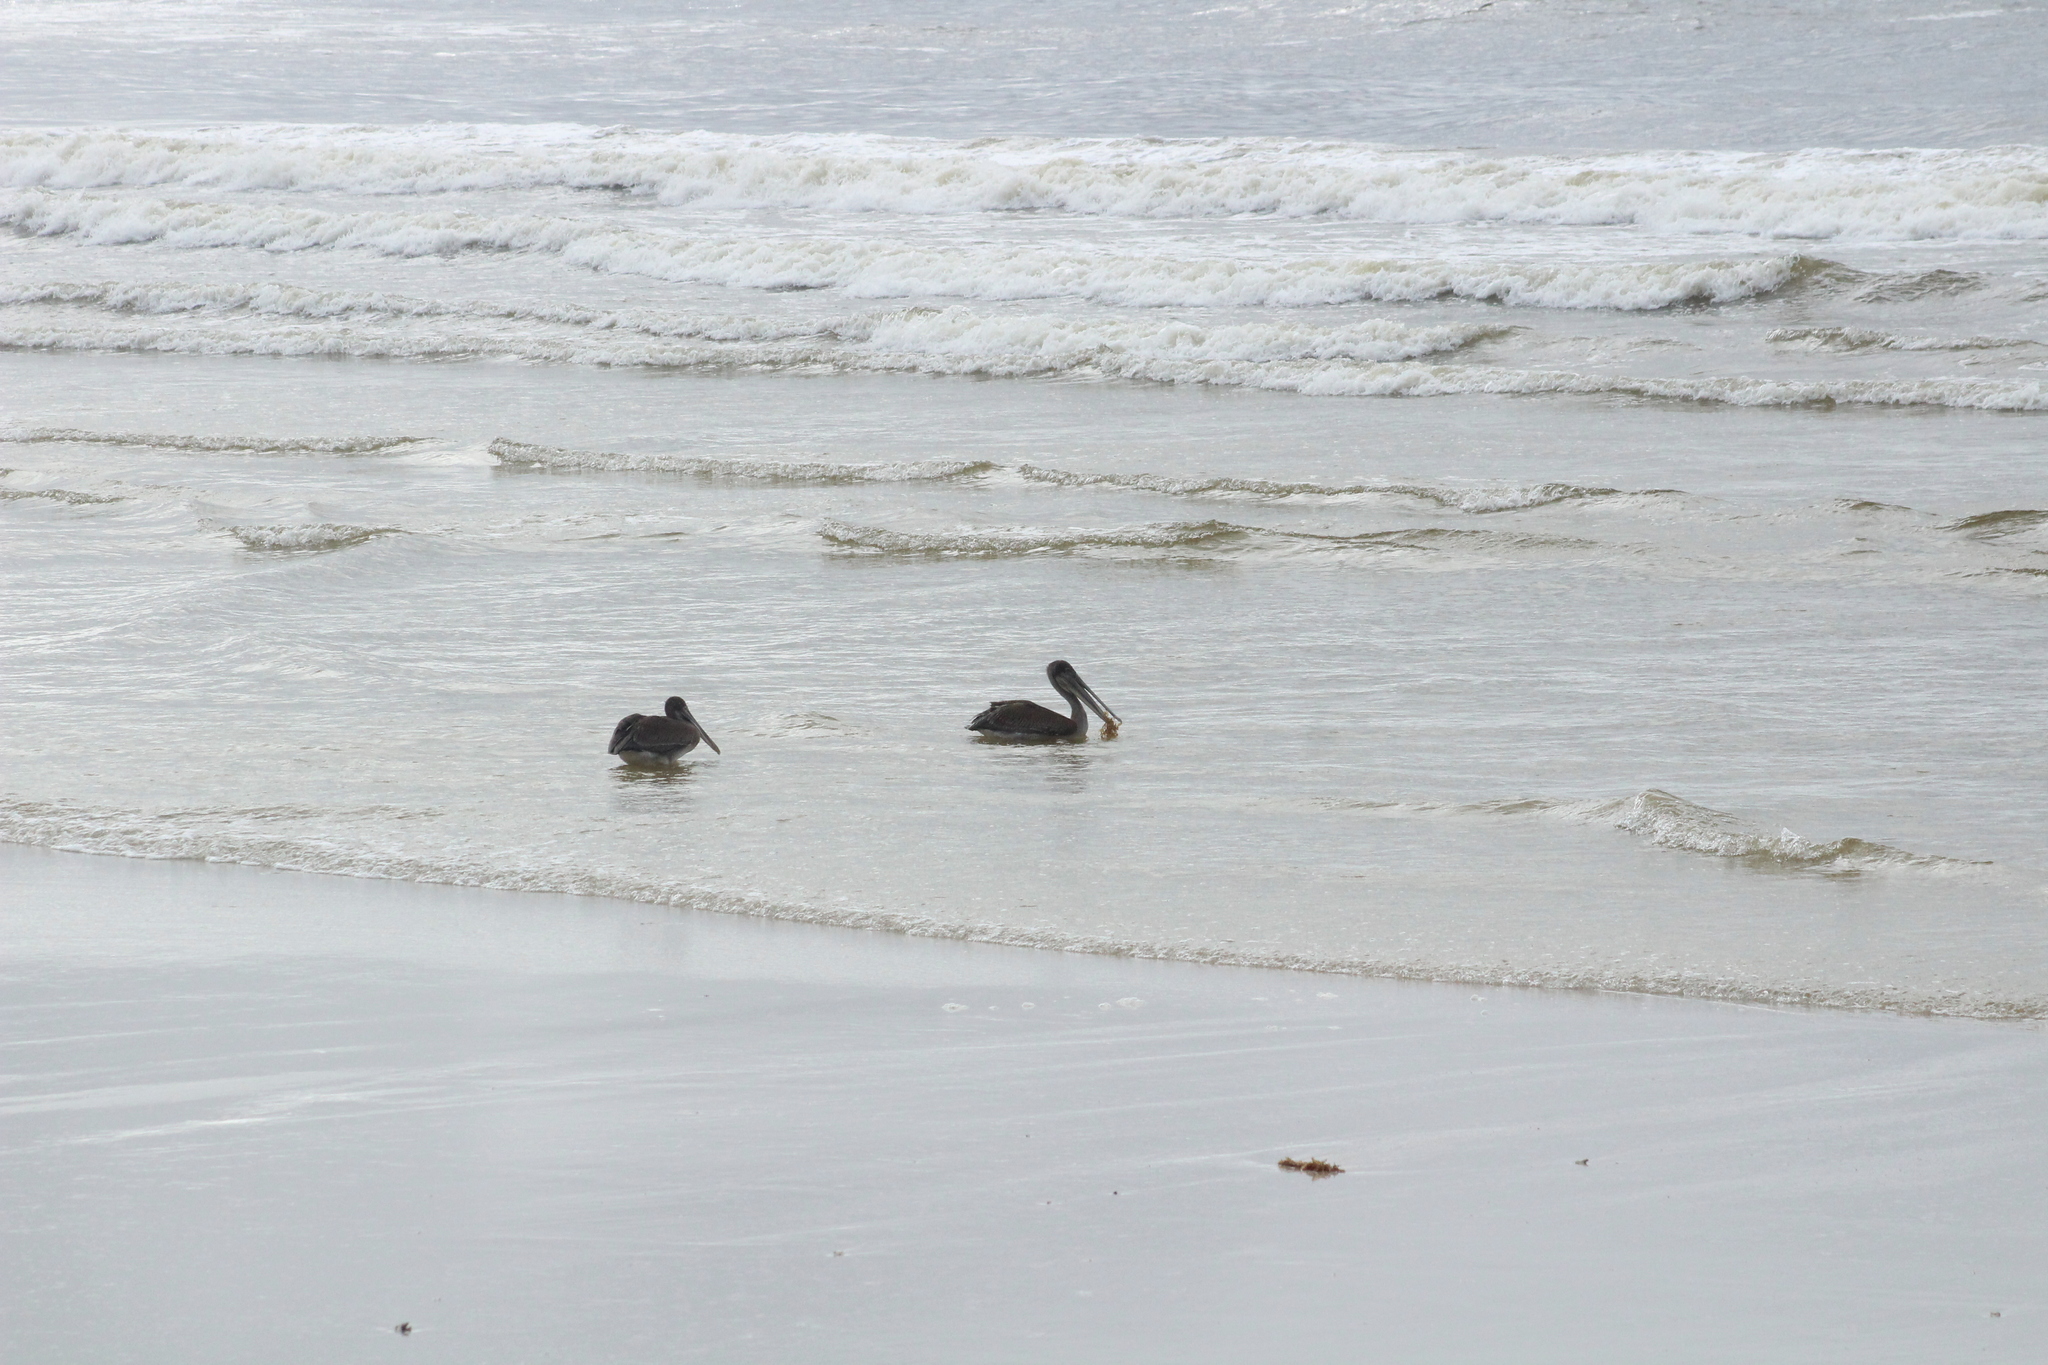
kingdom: Animalia
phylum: Chordata
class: Aves
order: Pelecaniformes
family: Pelecanidae
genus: Pelecanus
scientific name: Pelecanus occidentalis
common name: Brown pelican
